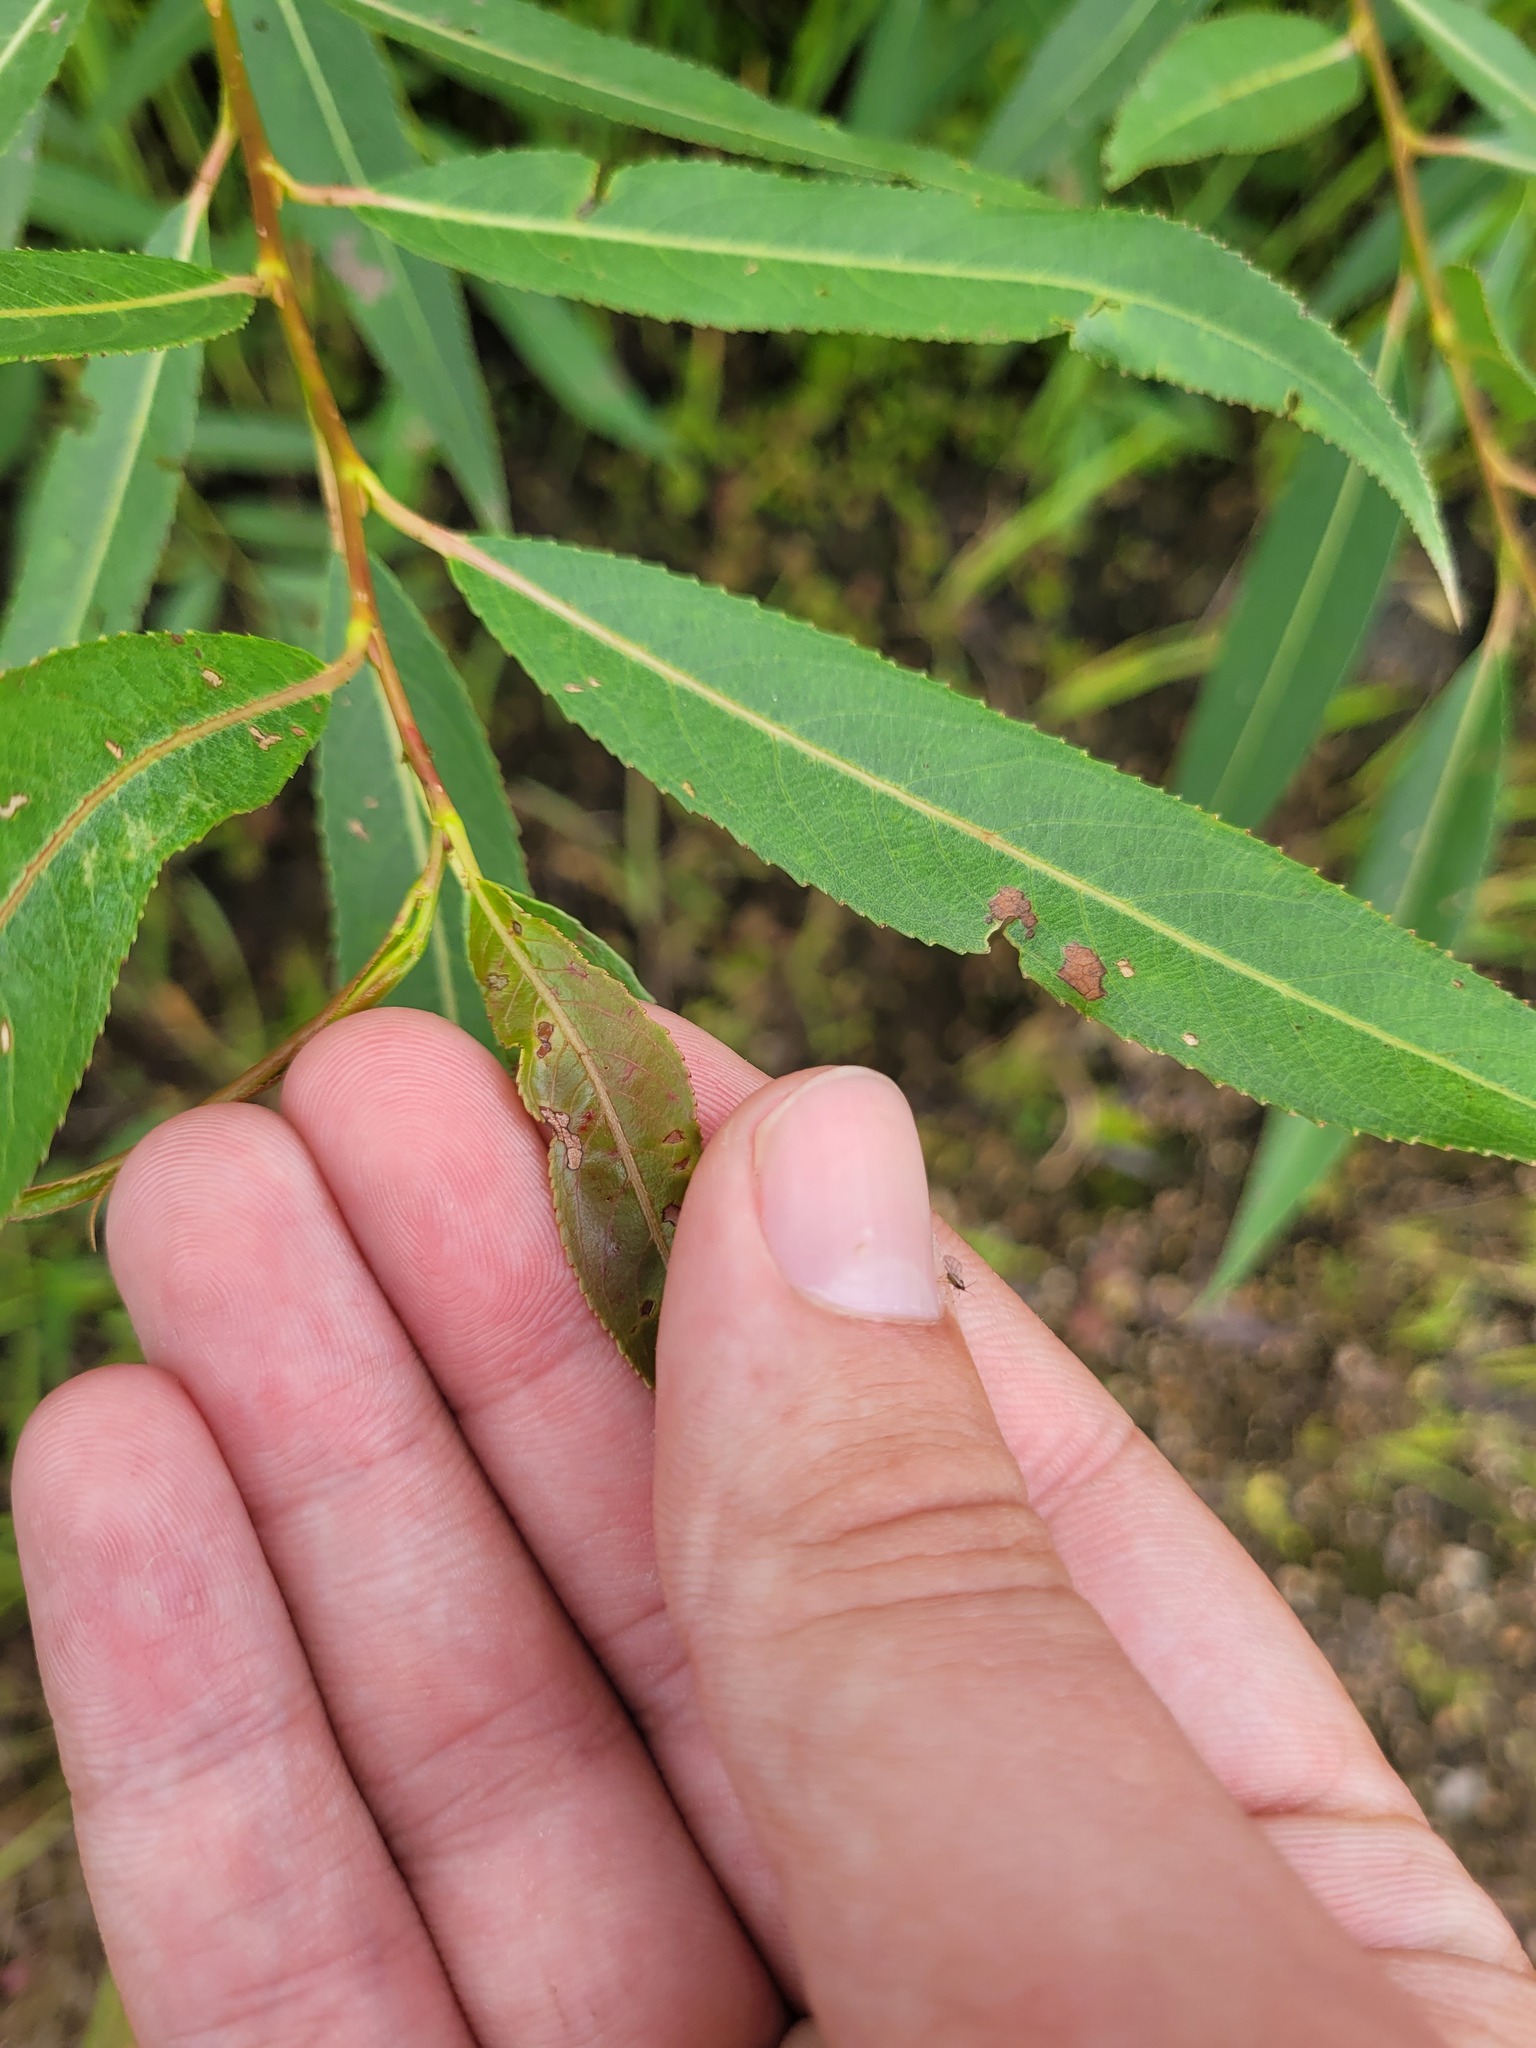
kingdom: Plantae
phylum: Tracheophyta
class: Magnoliopsida
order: Malpighiales
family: Salicaceae
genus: Salix
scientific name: Salix alba
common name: White willow
